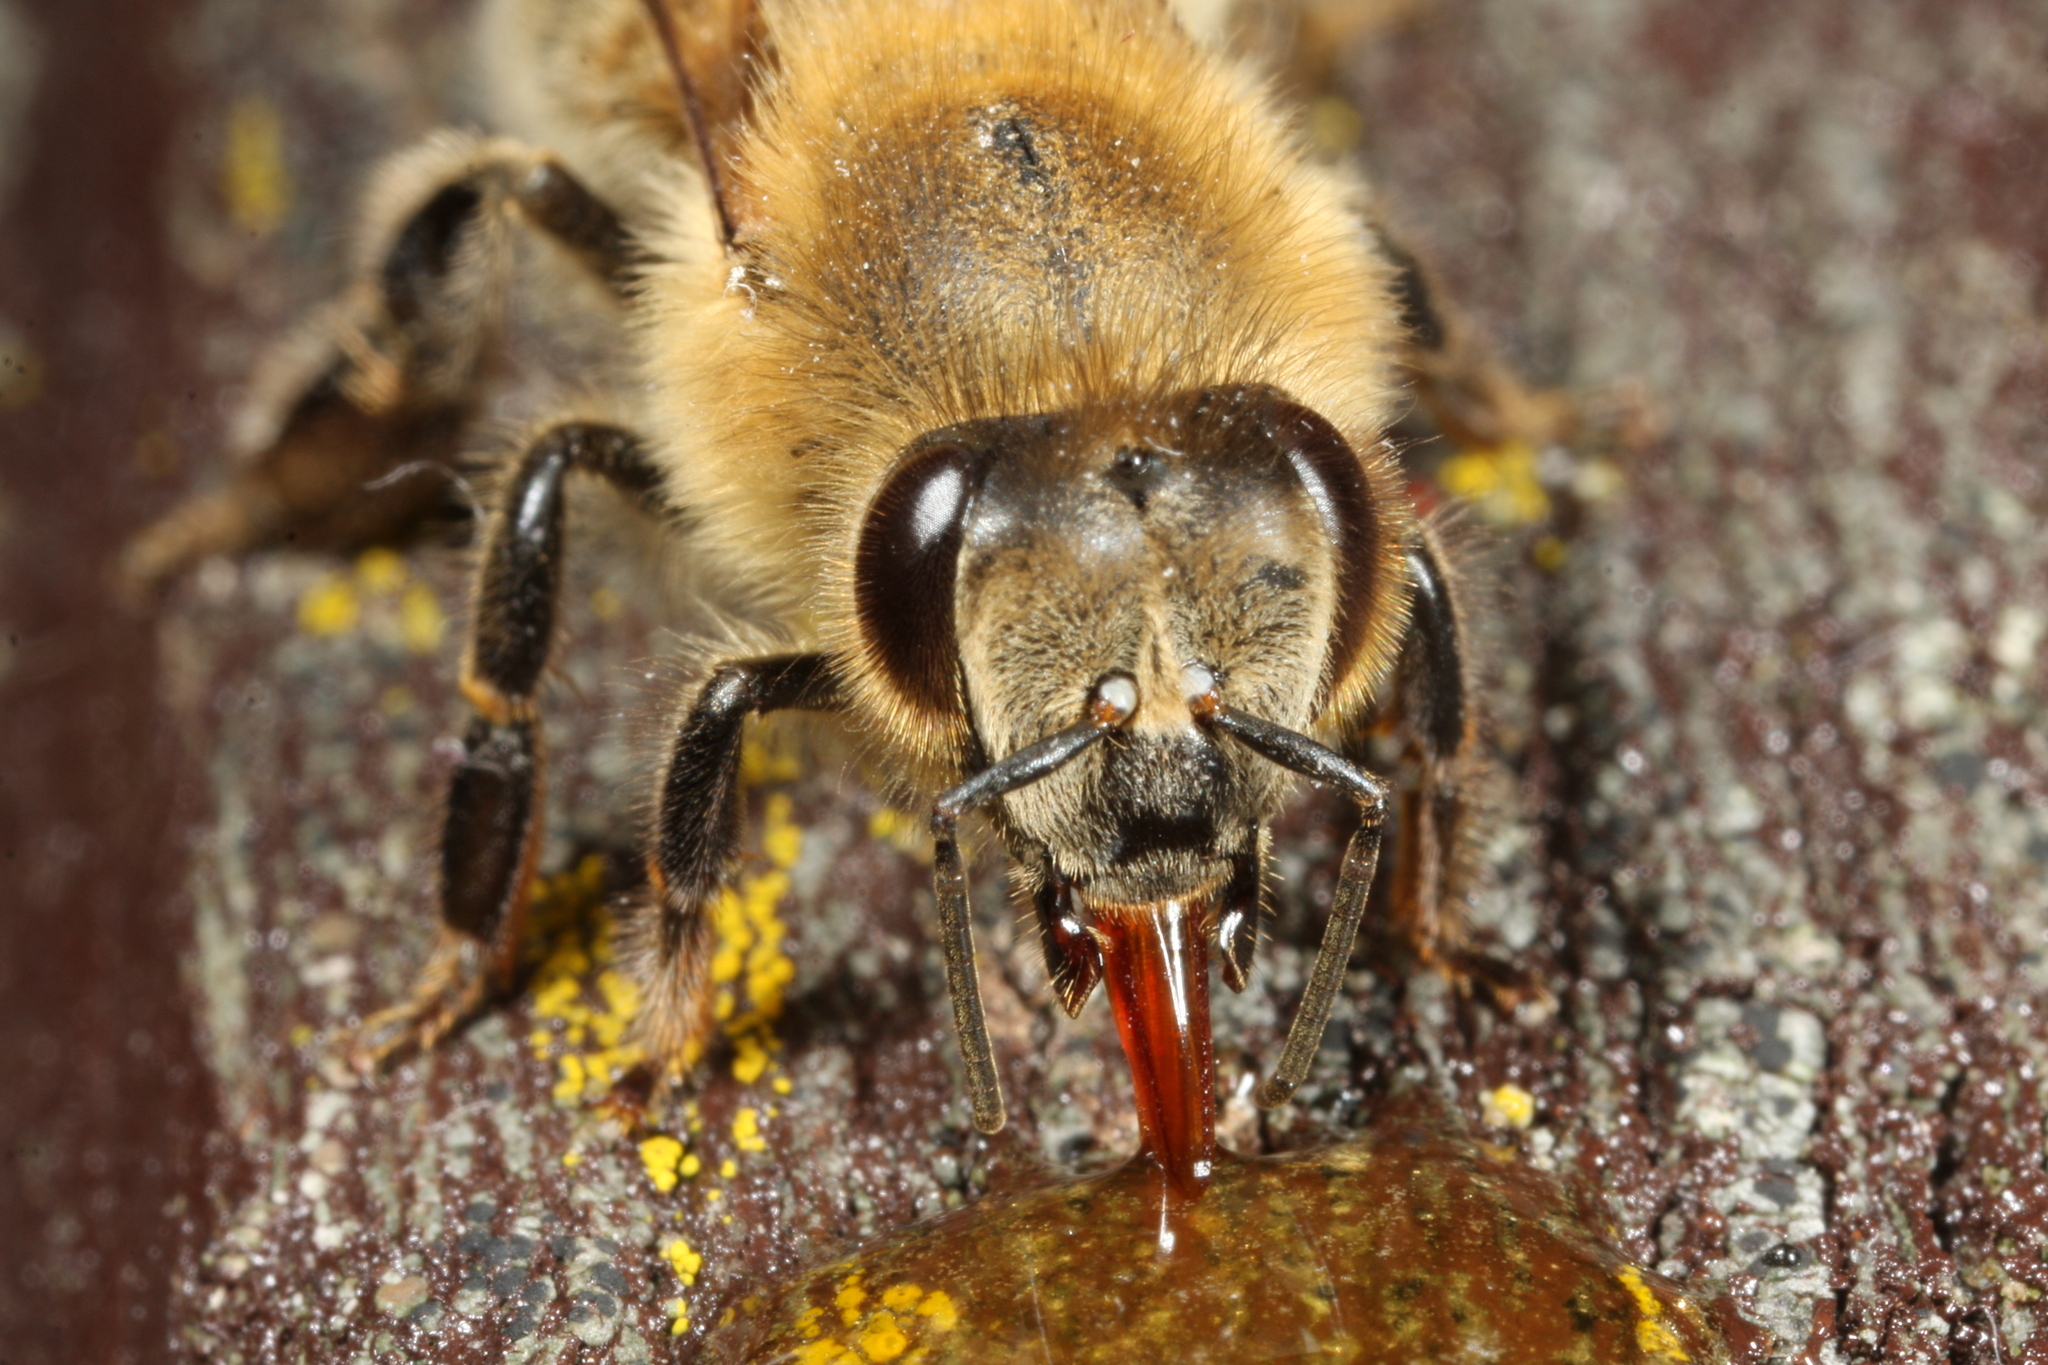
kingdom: Animalia
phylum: Arthropoda
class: Insecta
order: Hymenoptera
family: Apidae
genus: Apis
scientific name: Apis mellifera
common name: Honey bee
